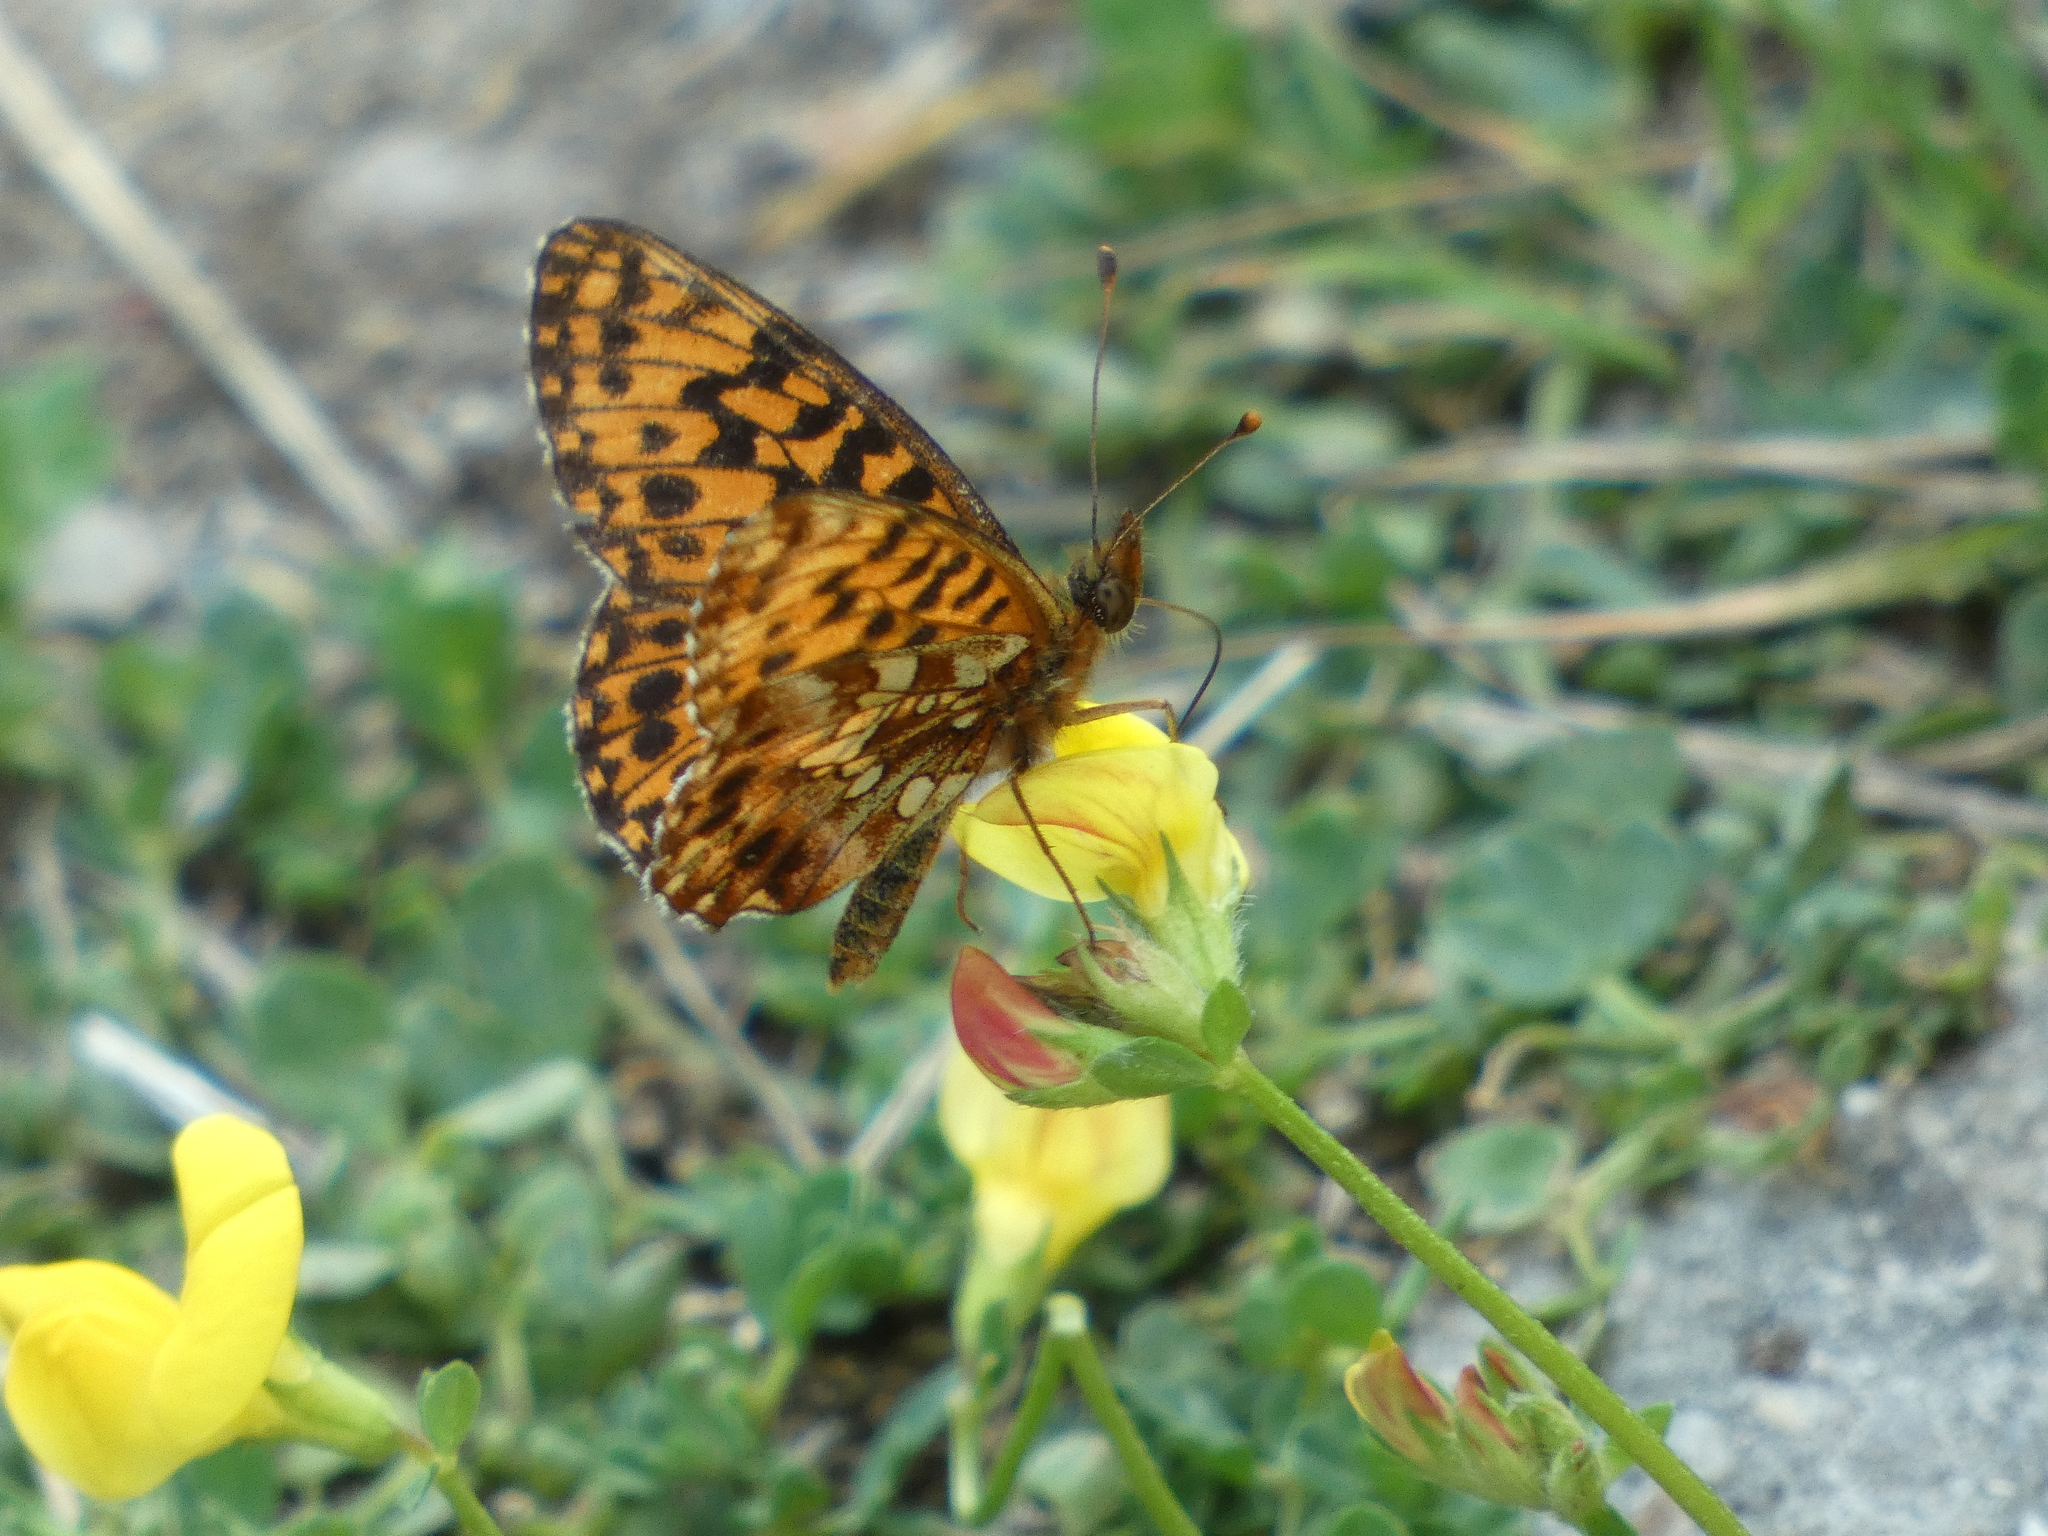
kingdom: Animalia
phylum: Arthropoda
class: Insecta
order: Lepidoptera
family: Nymphalidae
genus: Boloria
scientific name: Boloria dia
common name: Weaver's fritillary
